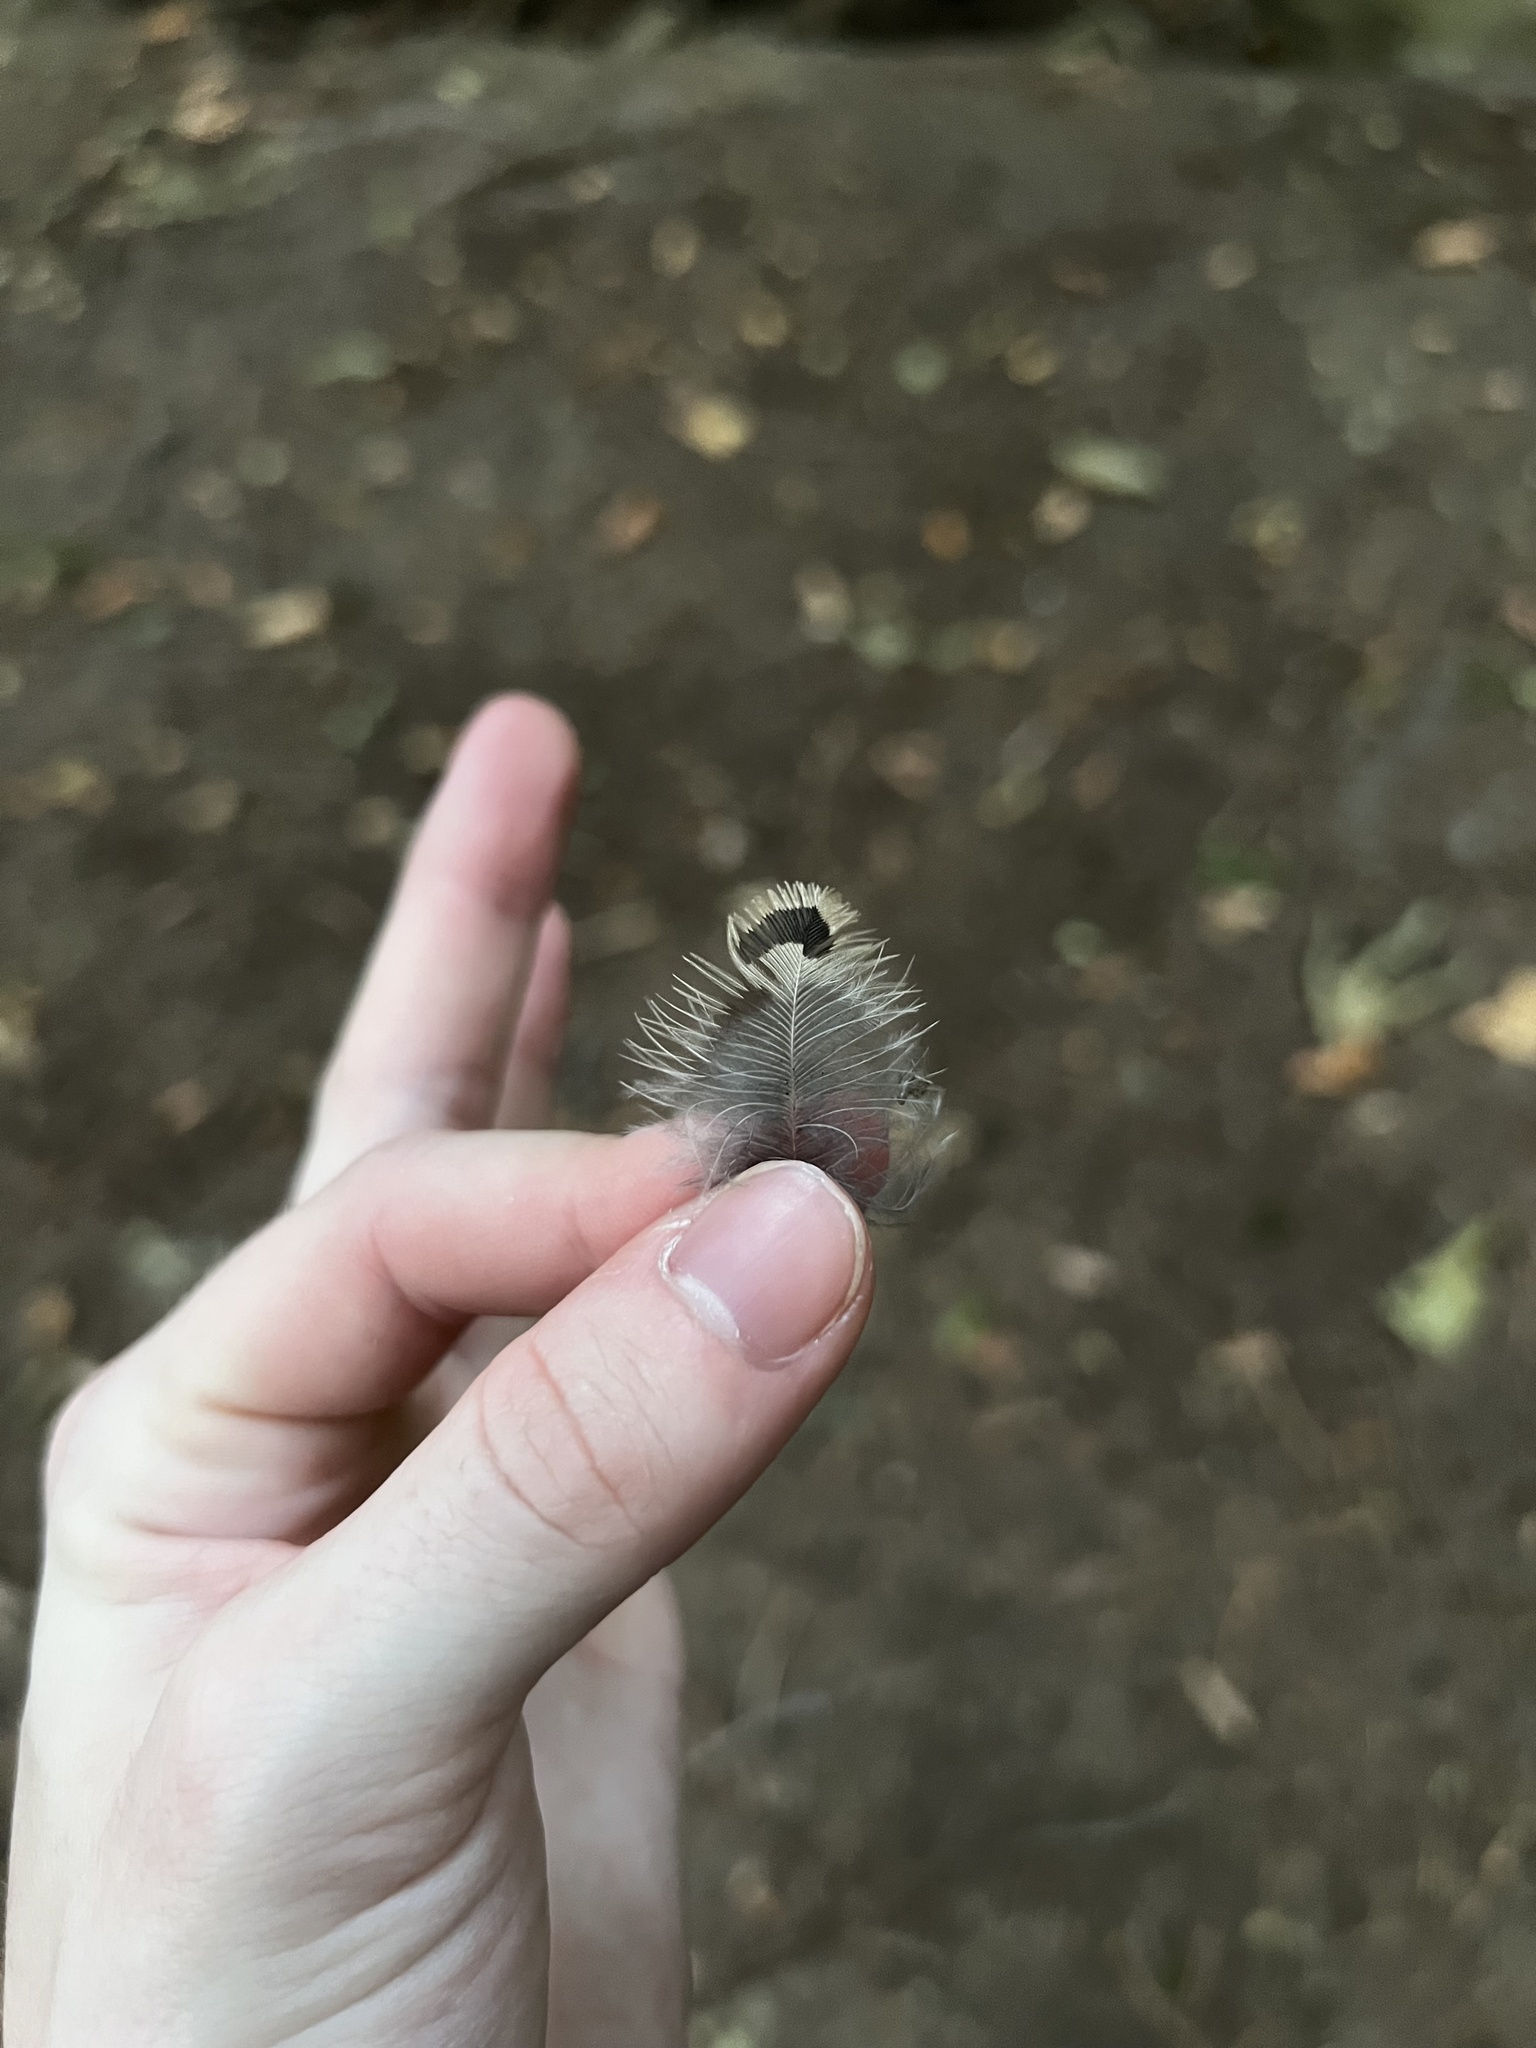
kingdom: Animalia
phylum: Chordata
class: Aves
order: Piciformes
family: Picidae
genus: Colaptes
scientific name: Colaptes auratus
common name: Northern flicker
